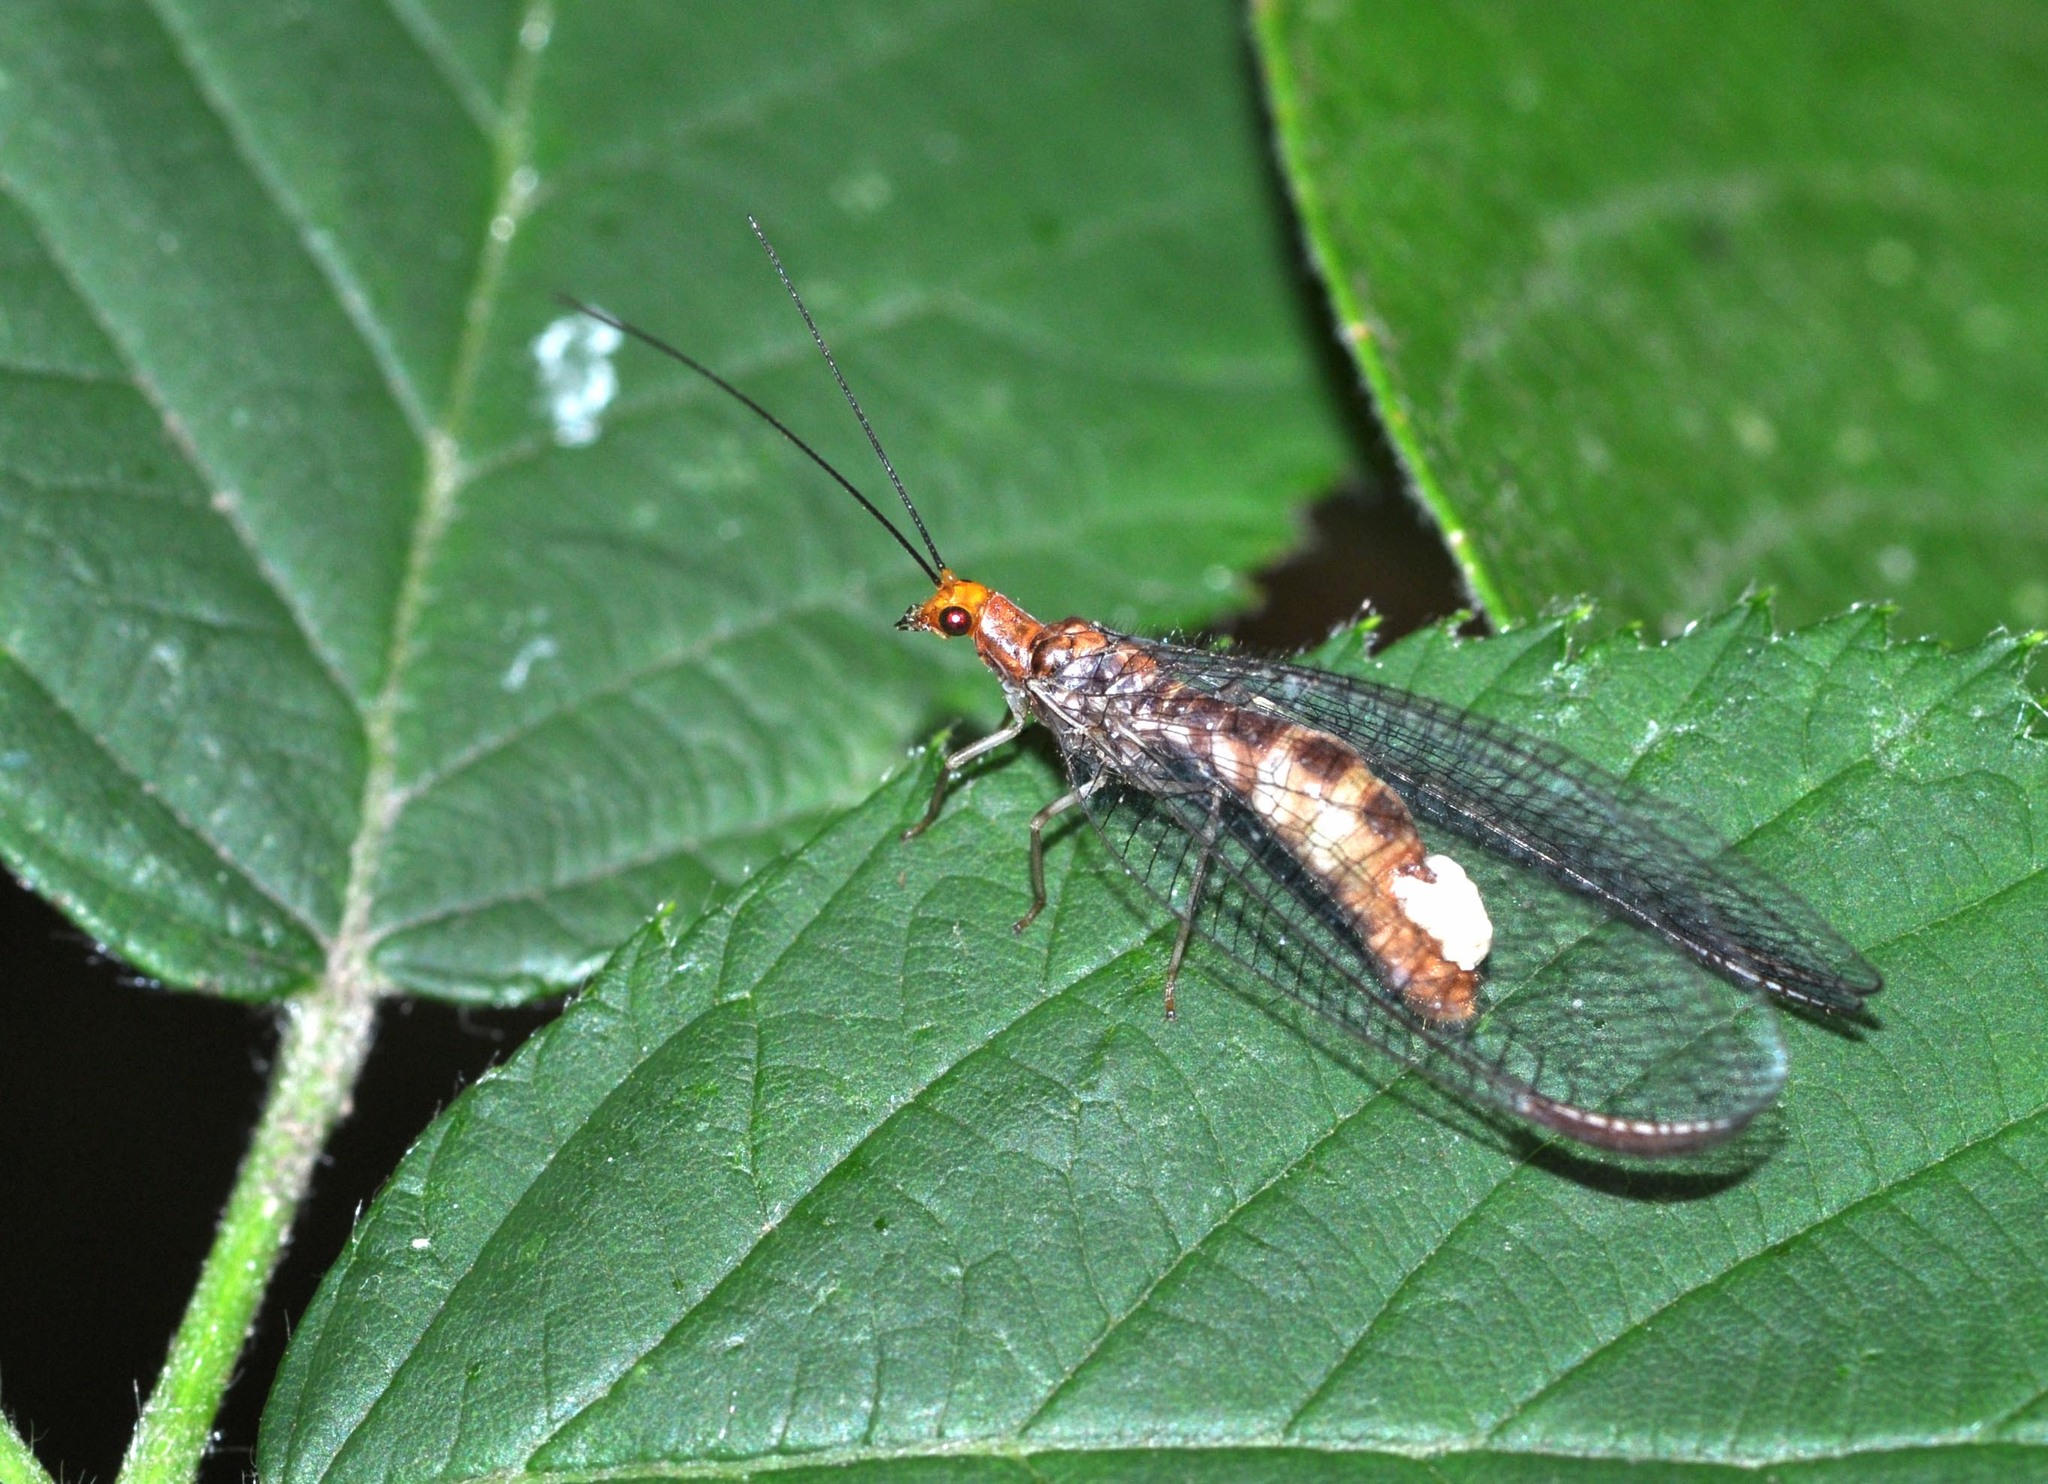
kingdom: Animalia
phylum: Arthropoda
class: Insecta
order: Neuroptera
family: Chrysopidae
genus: Nothochrysa
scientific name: Nothochrysa capitata
